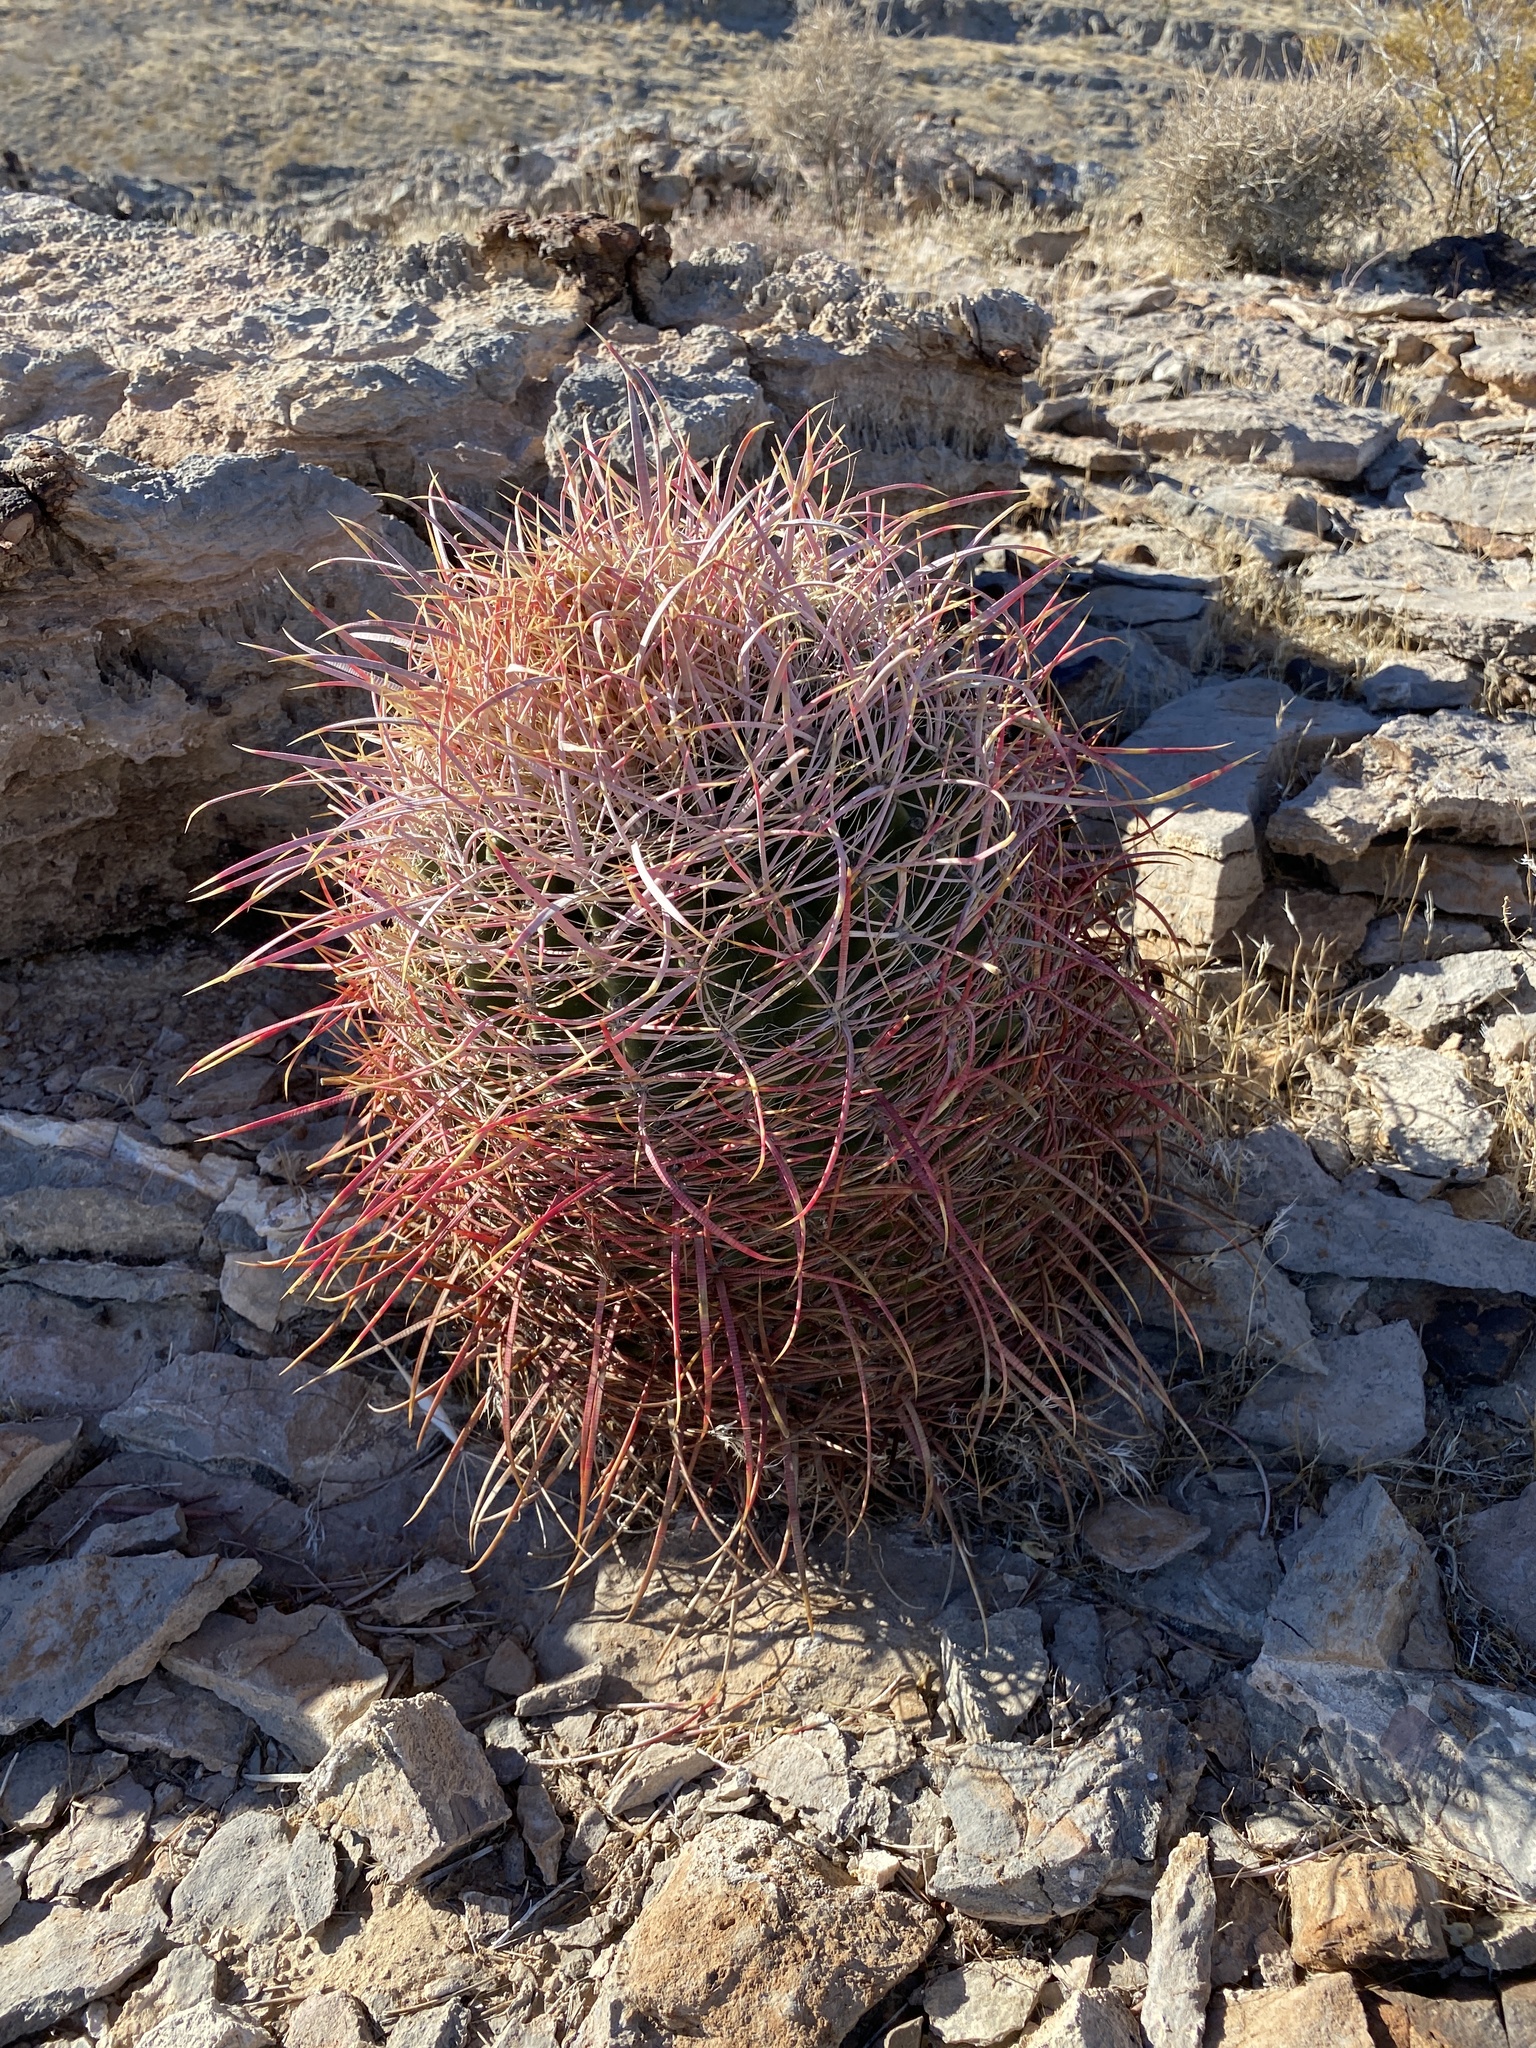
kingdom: Plantae
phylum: Tracheophyta
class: Magnoliopsida
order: Caryophyllales
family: Cactaceae
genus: Ferocactus
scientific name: Ferocactus cylindraceus
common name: California barrel cactus
